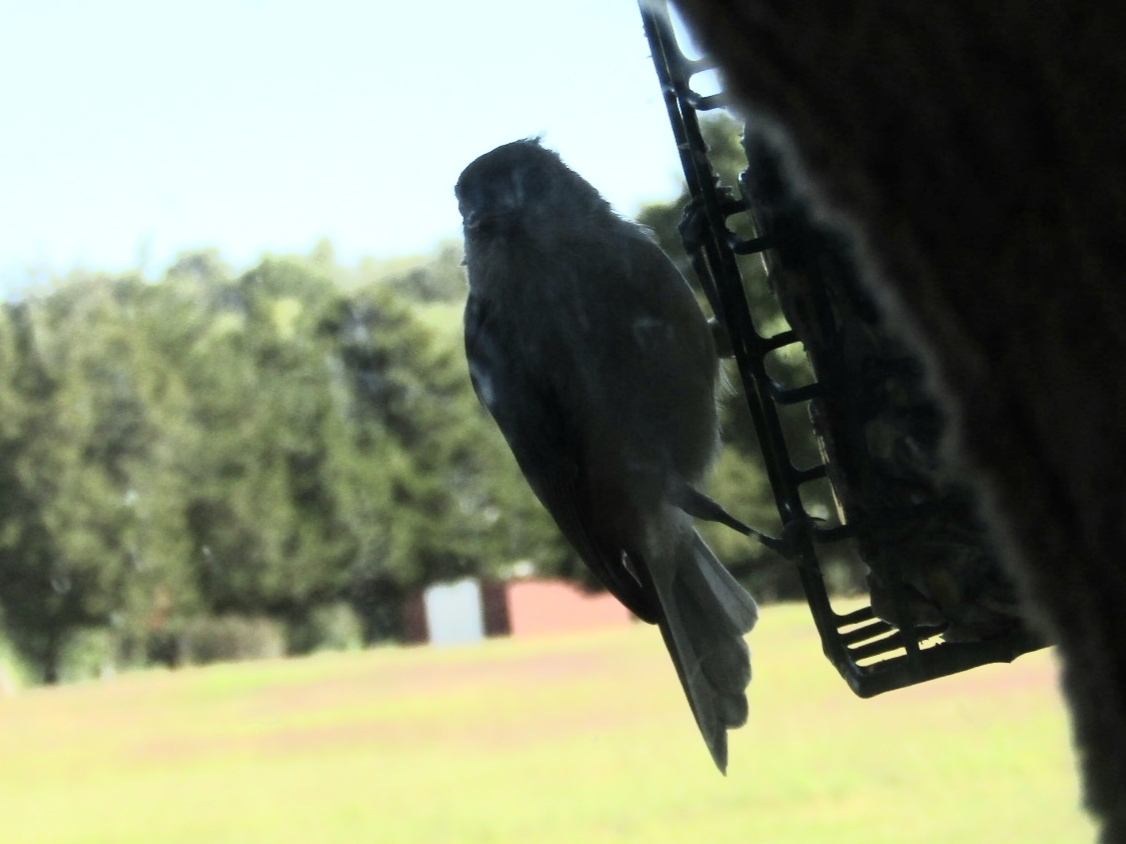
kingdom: Animalia
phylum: Chordata
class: Aves
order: Passeriformes
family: Paridae
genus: Baeolophus
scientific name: Baeolophus bicolor
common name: Tufted titmouse
